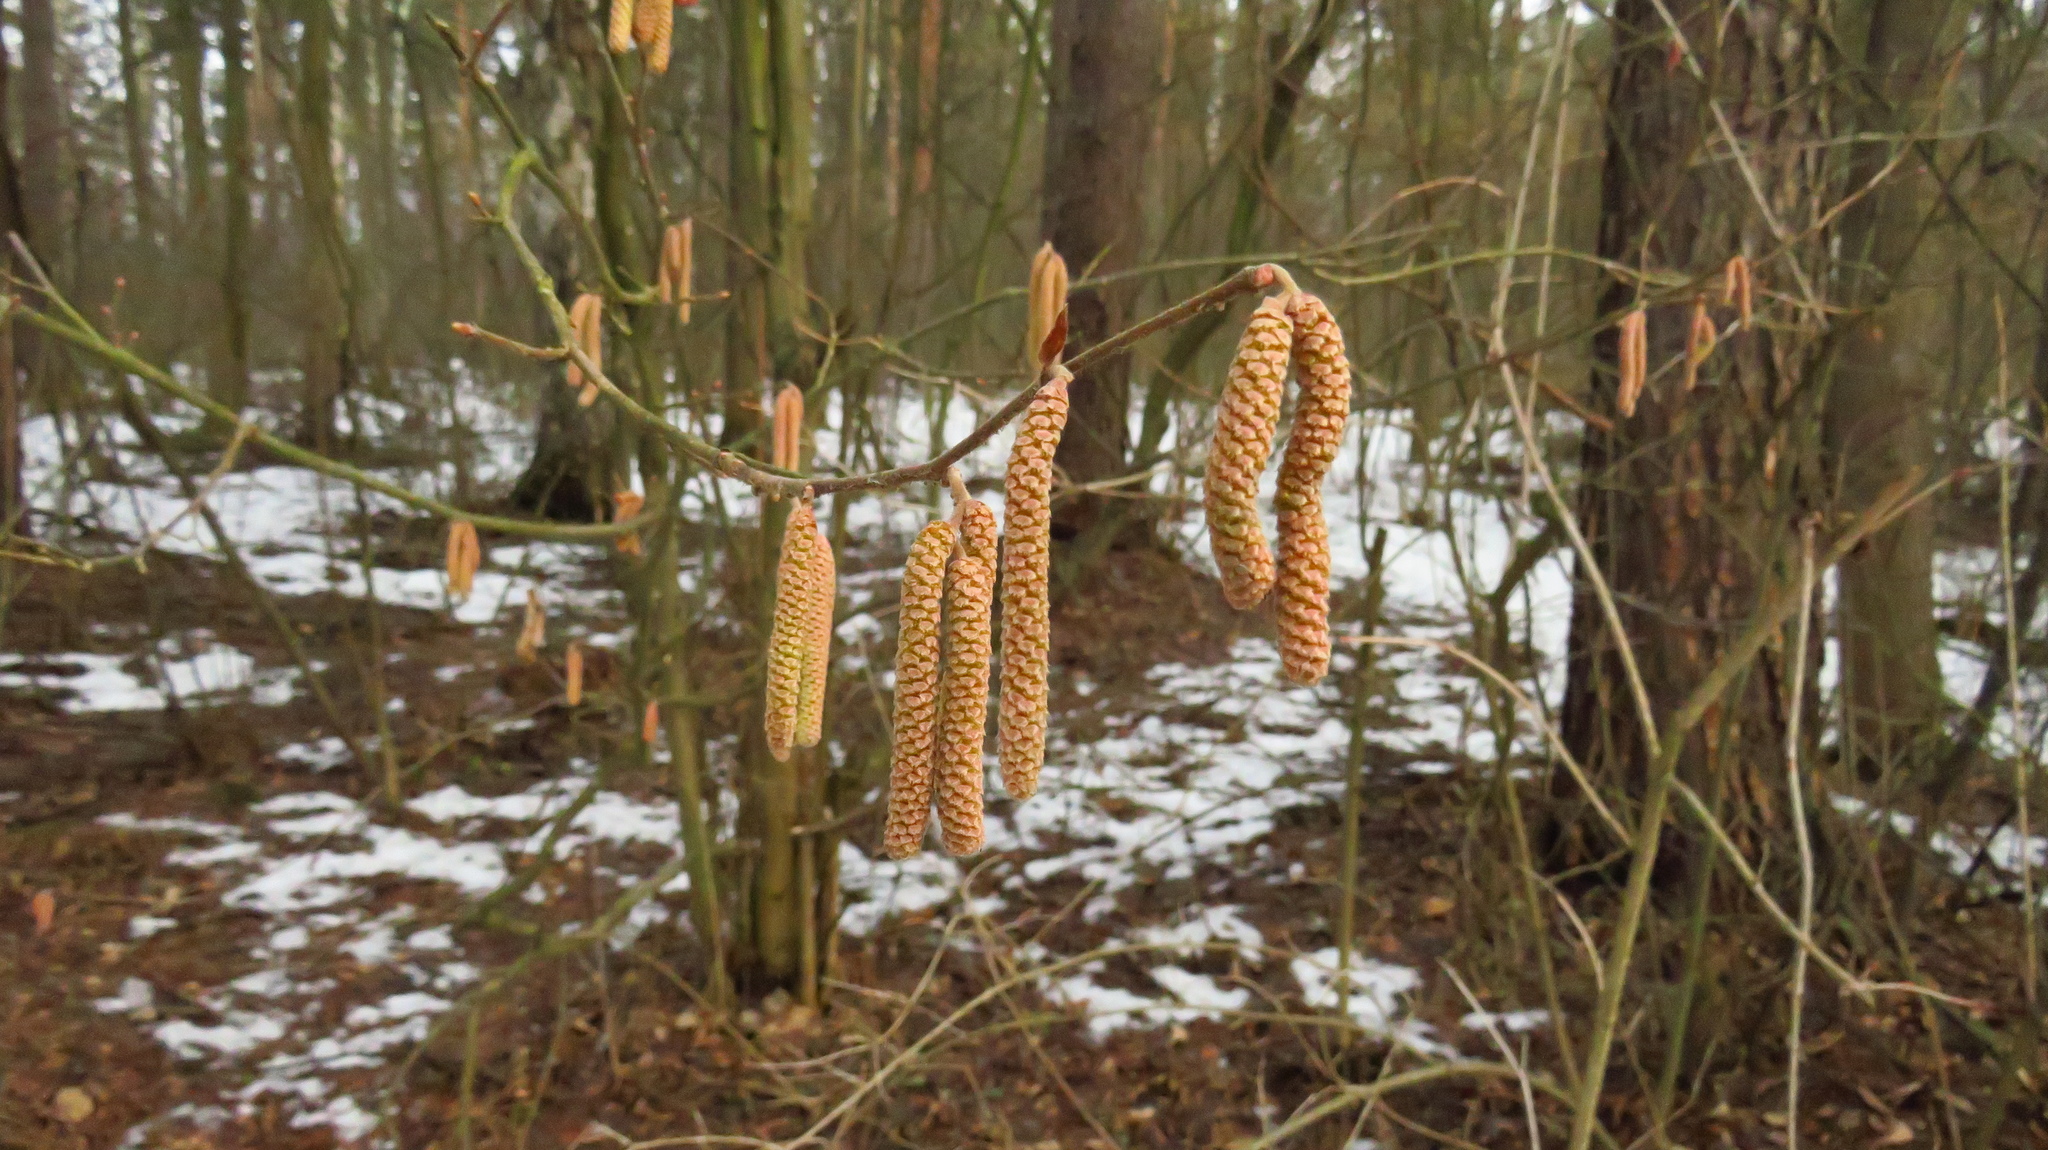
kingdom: Plantae
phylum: Tracheophyta
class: Magnoliopsida
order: Fagales
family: Betulaceae
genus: Corylus
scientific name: Corylus avellana
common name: European hazel
